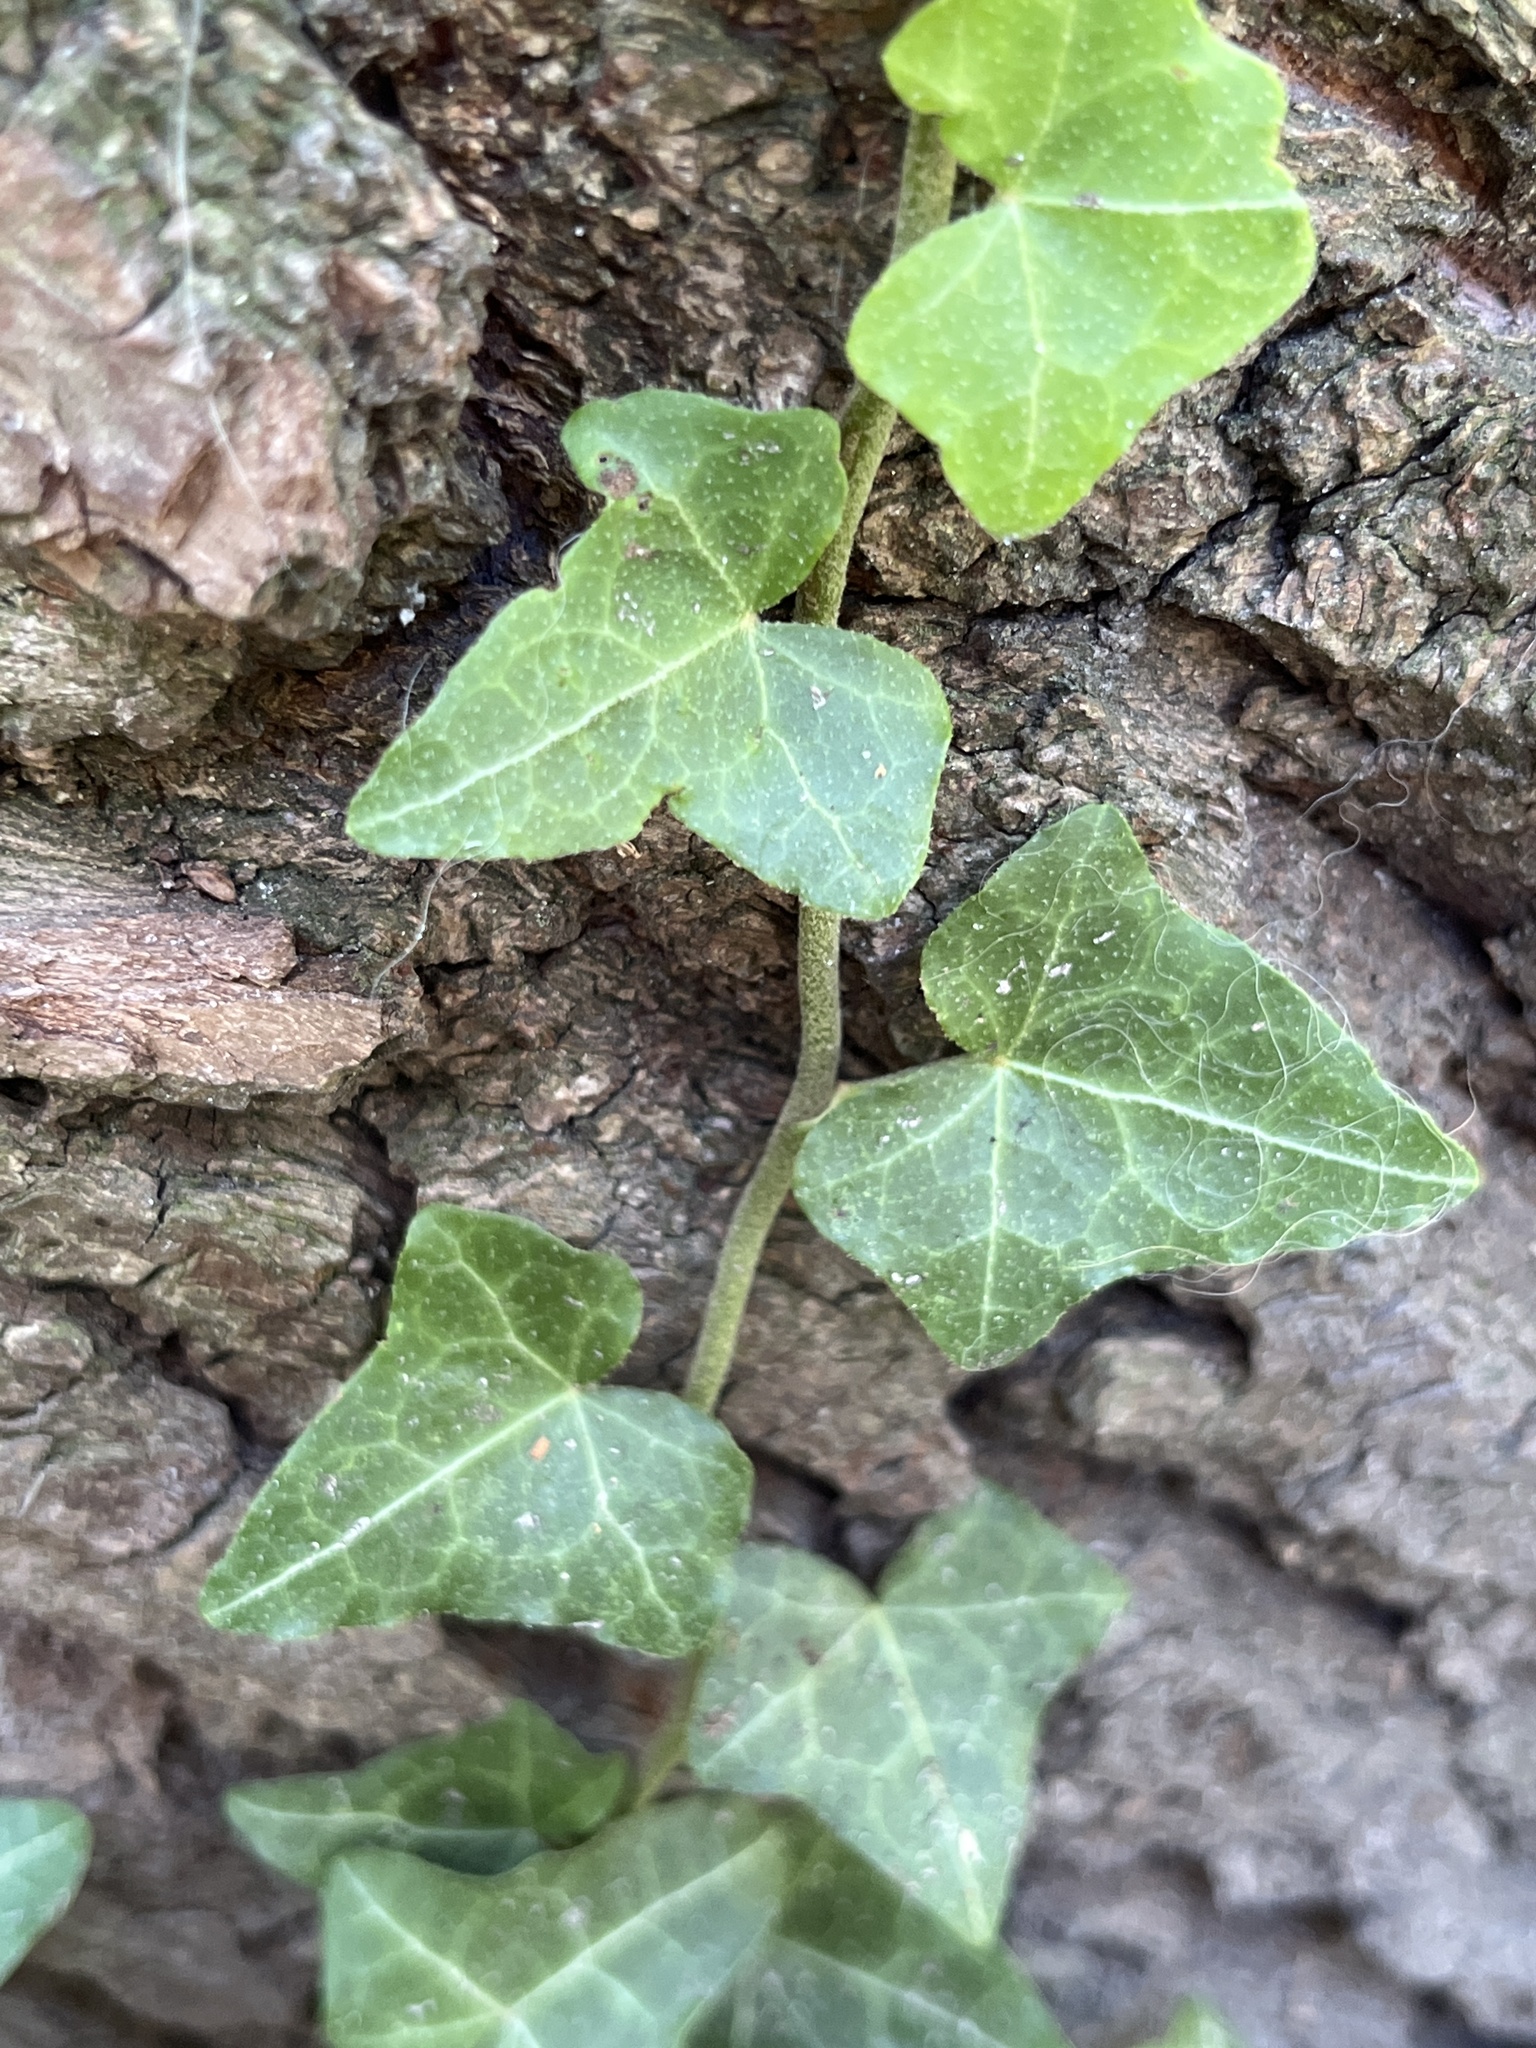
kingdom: Plantae
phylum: Tracheophyta
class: Magnoliopsida
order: Apiales
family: Araliaceae
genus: Hedera
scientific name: Hedera helix
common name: Ivy
